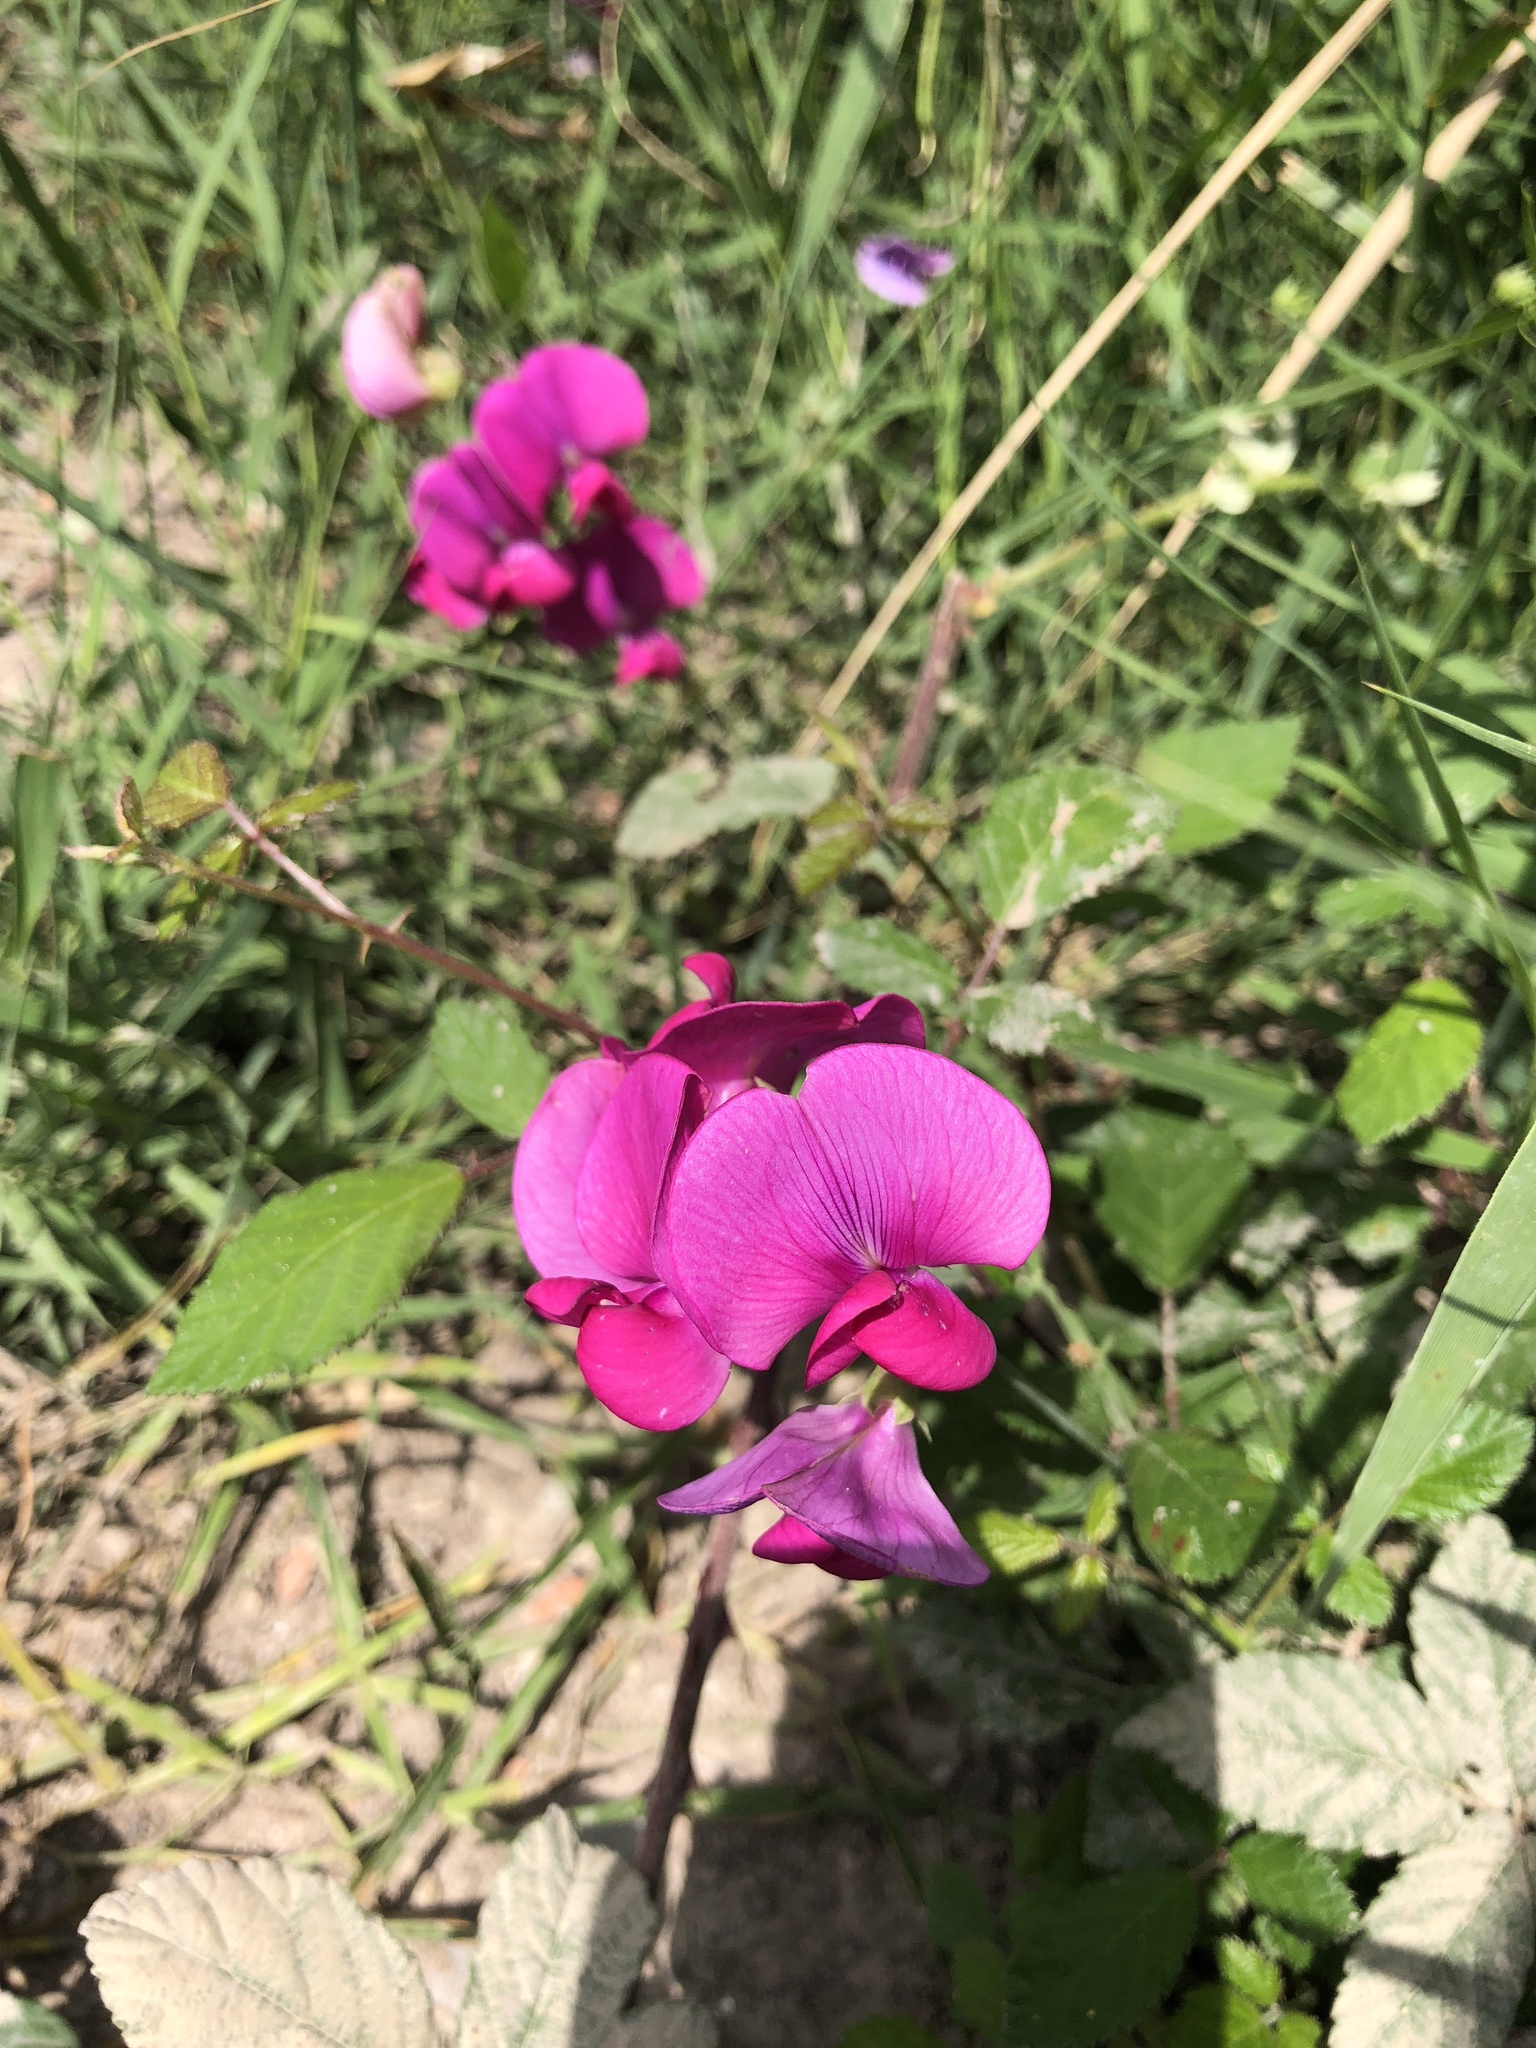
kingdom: Plantae
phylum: Tracheophyta
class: Magnoliopsida
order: Fabales
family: Fabaceae
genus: Lathyrus
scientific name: Lathyrus tuberosus
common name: Tuberous pea
